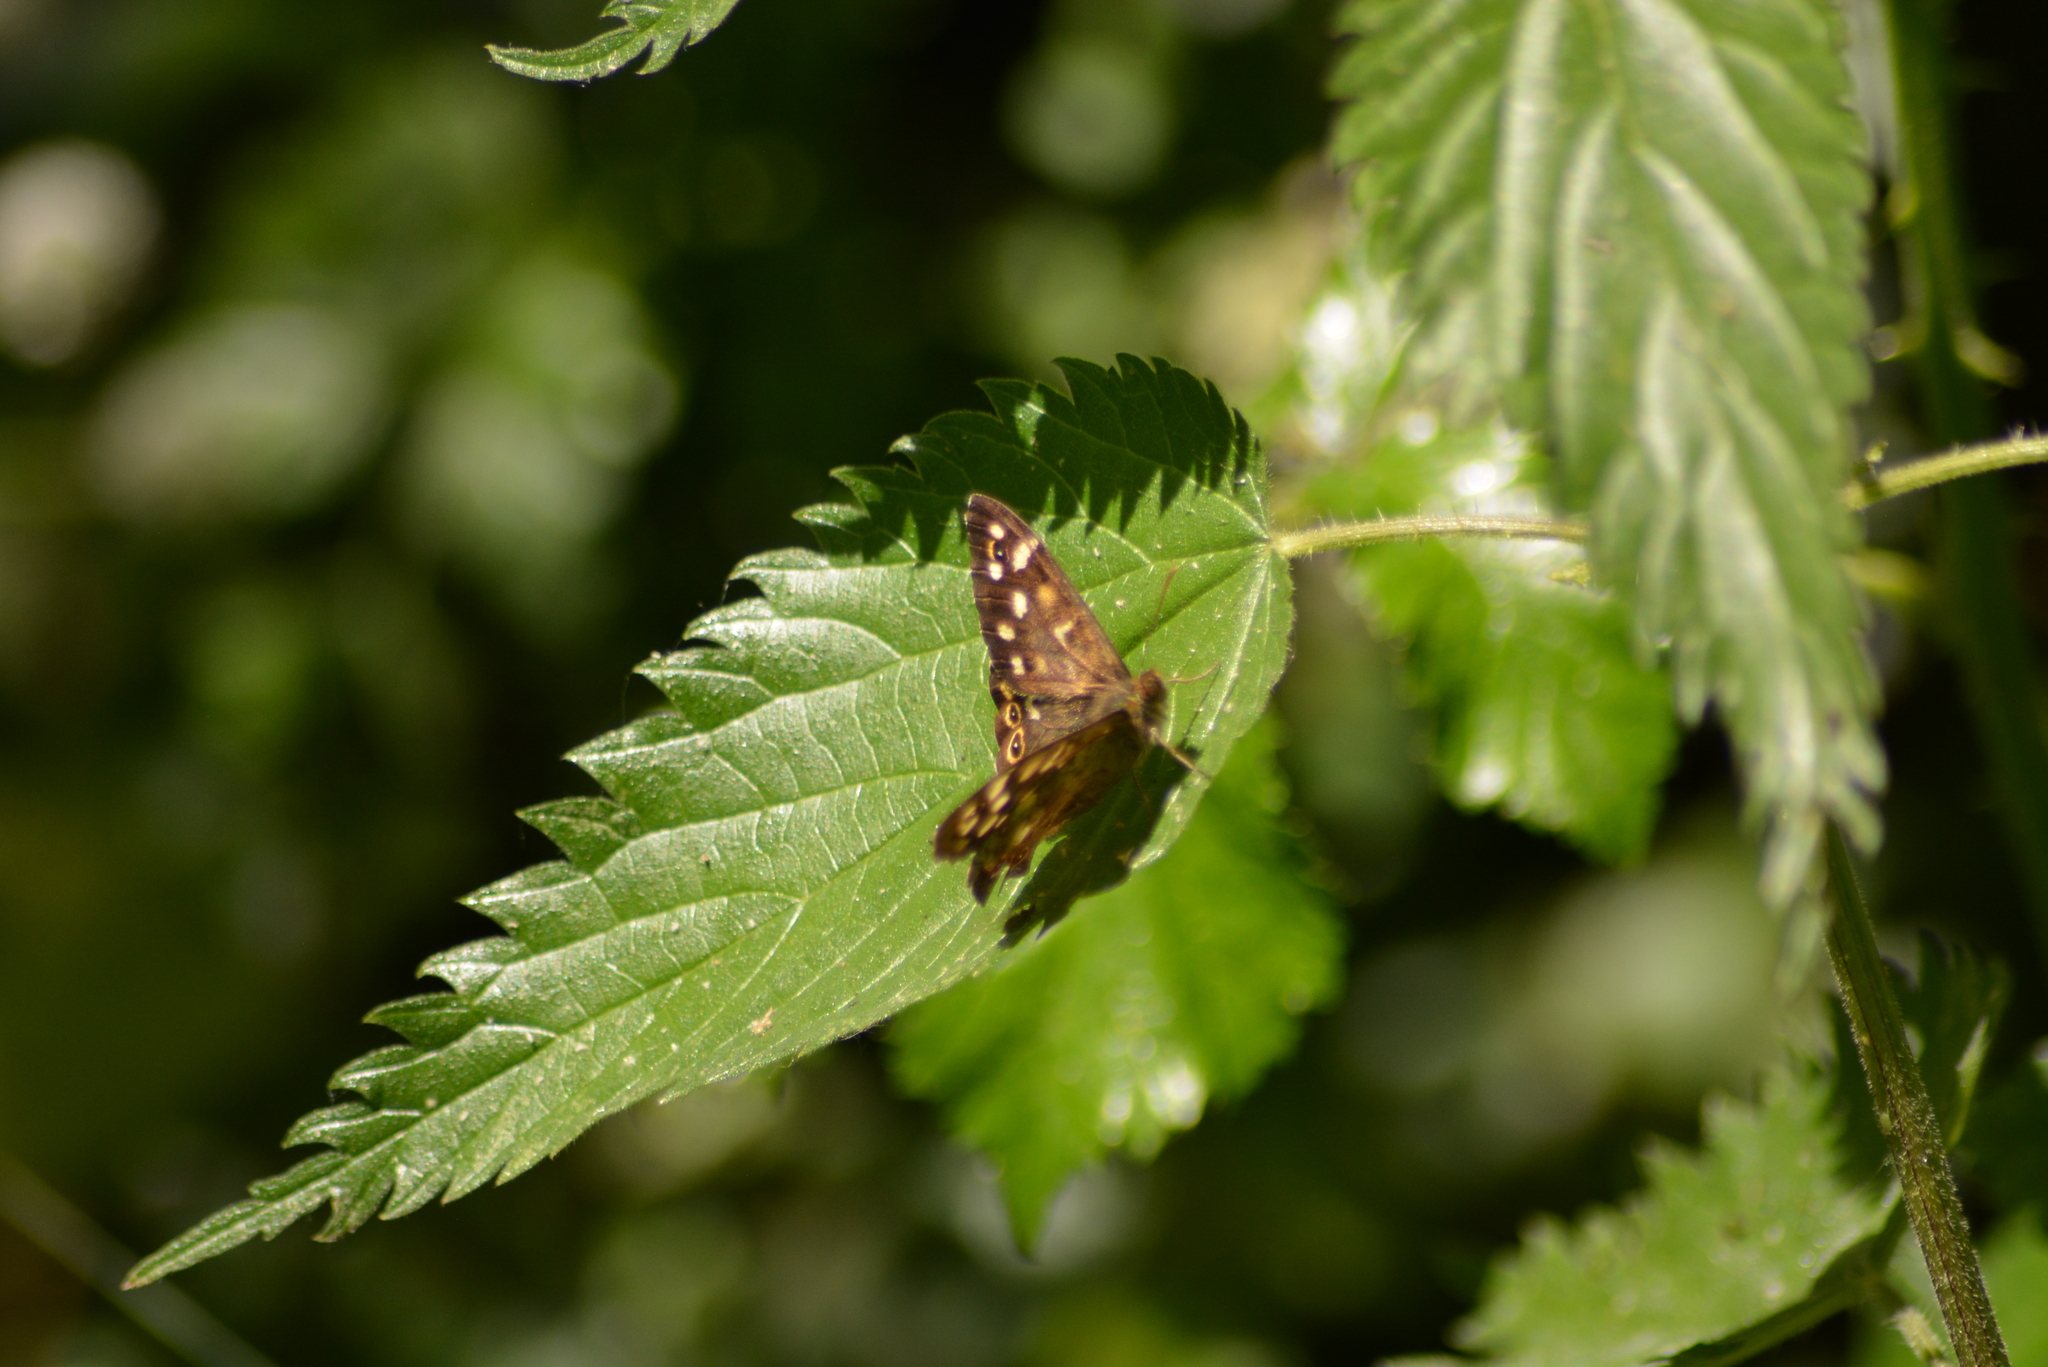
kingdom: Animalia
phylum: Arthropoda
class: Insecta
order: Lepidoptera
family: Nymphalidae
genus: Pararge
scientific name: Pararge aegeria
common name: Speckled wood
